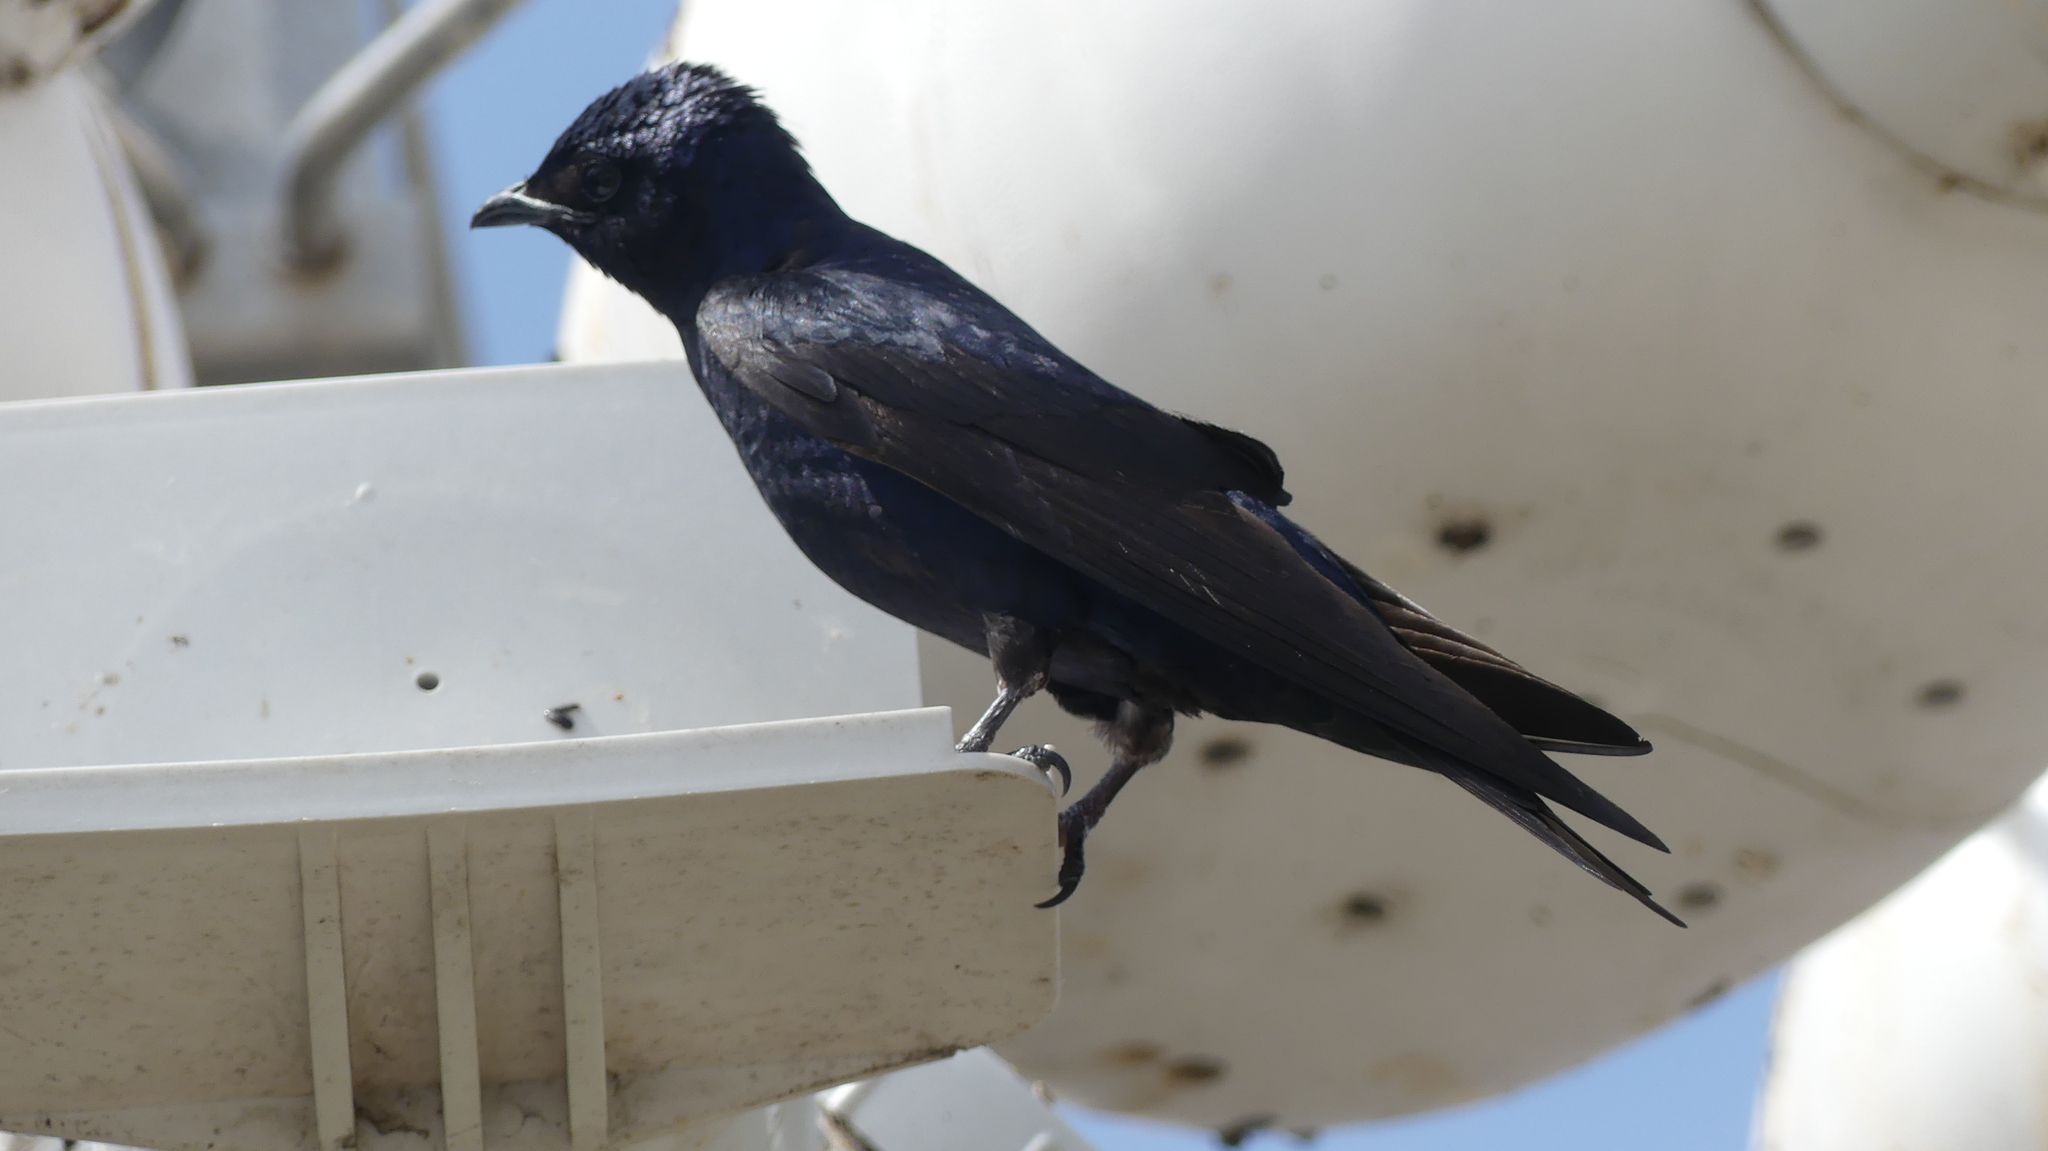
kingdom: Animalia
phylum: Chordata
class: Aves
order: Passeriformes
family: Hirundinidae
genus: Progne
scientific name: Progne subis
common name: Purple martin
